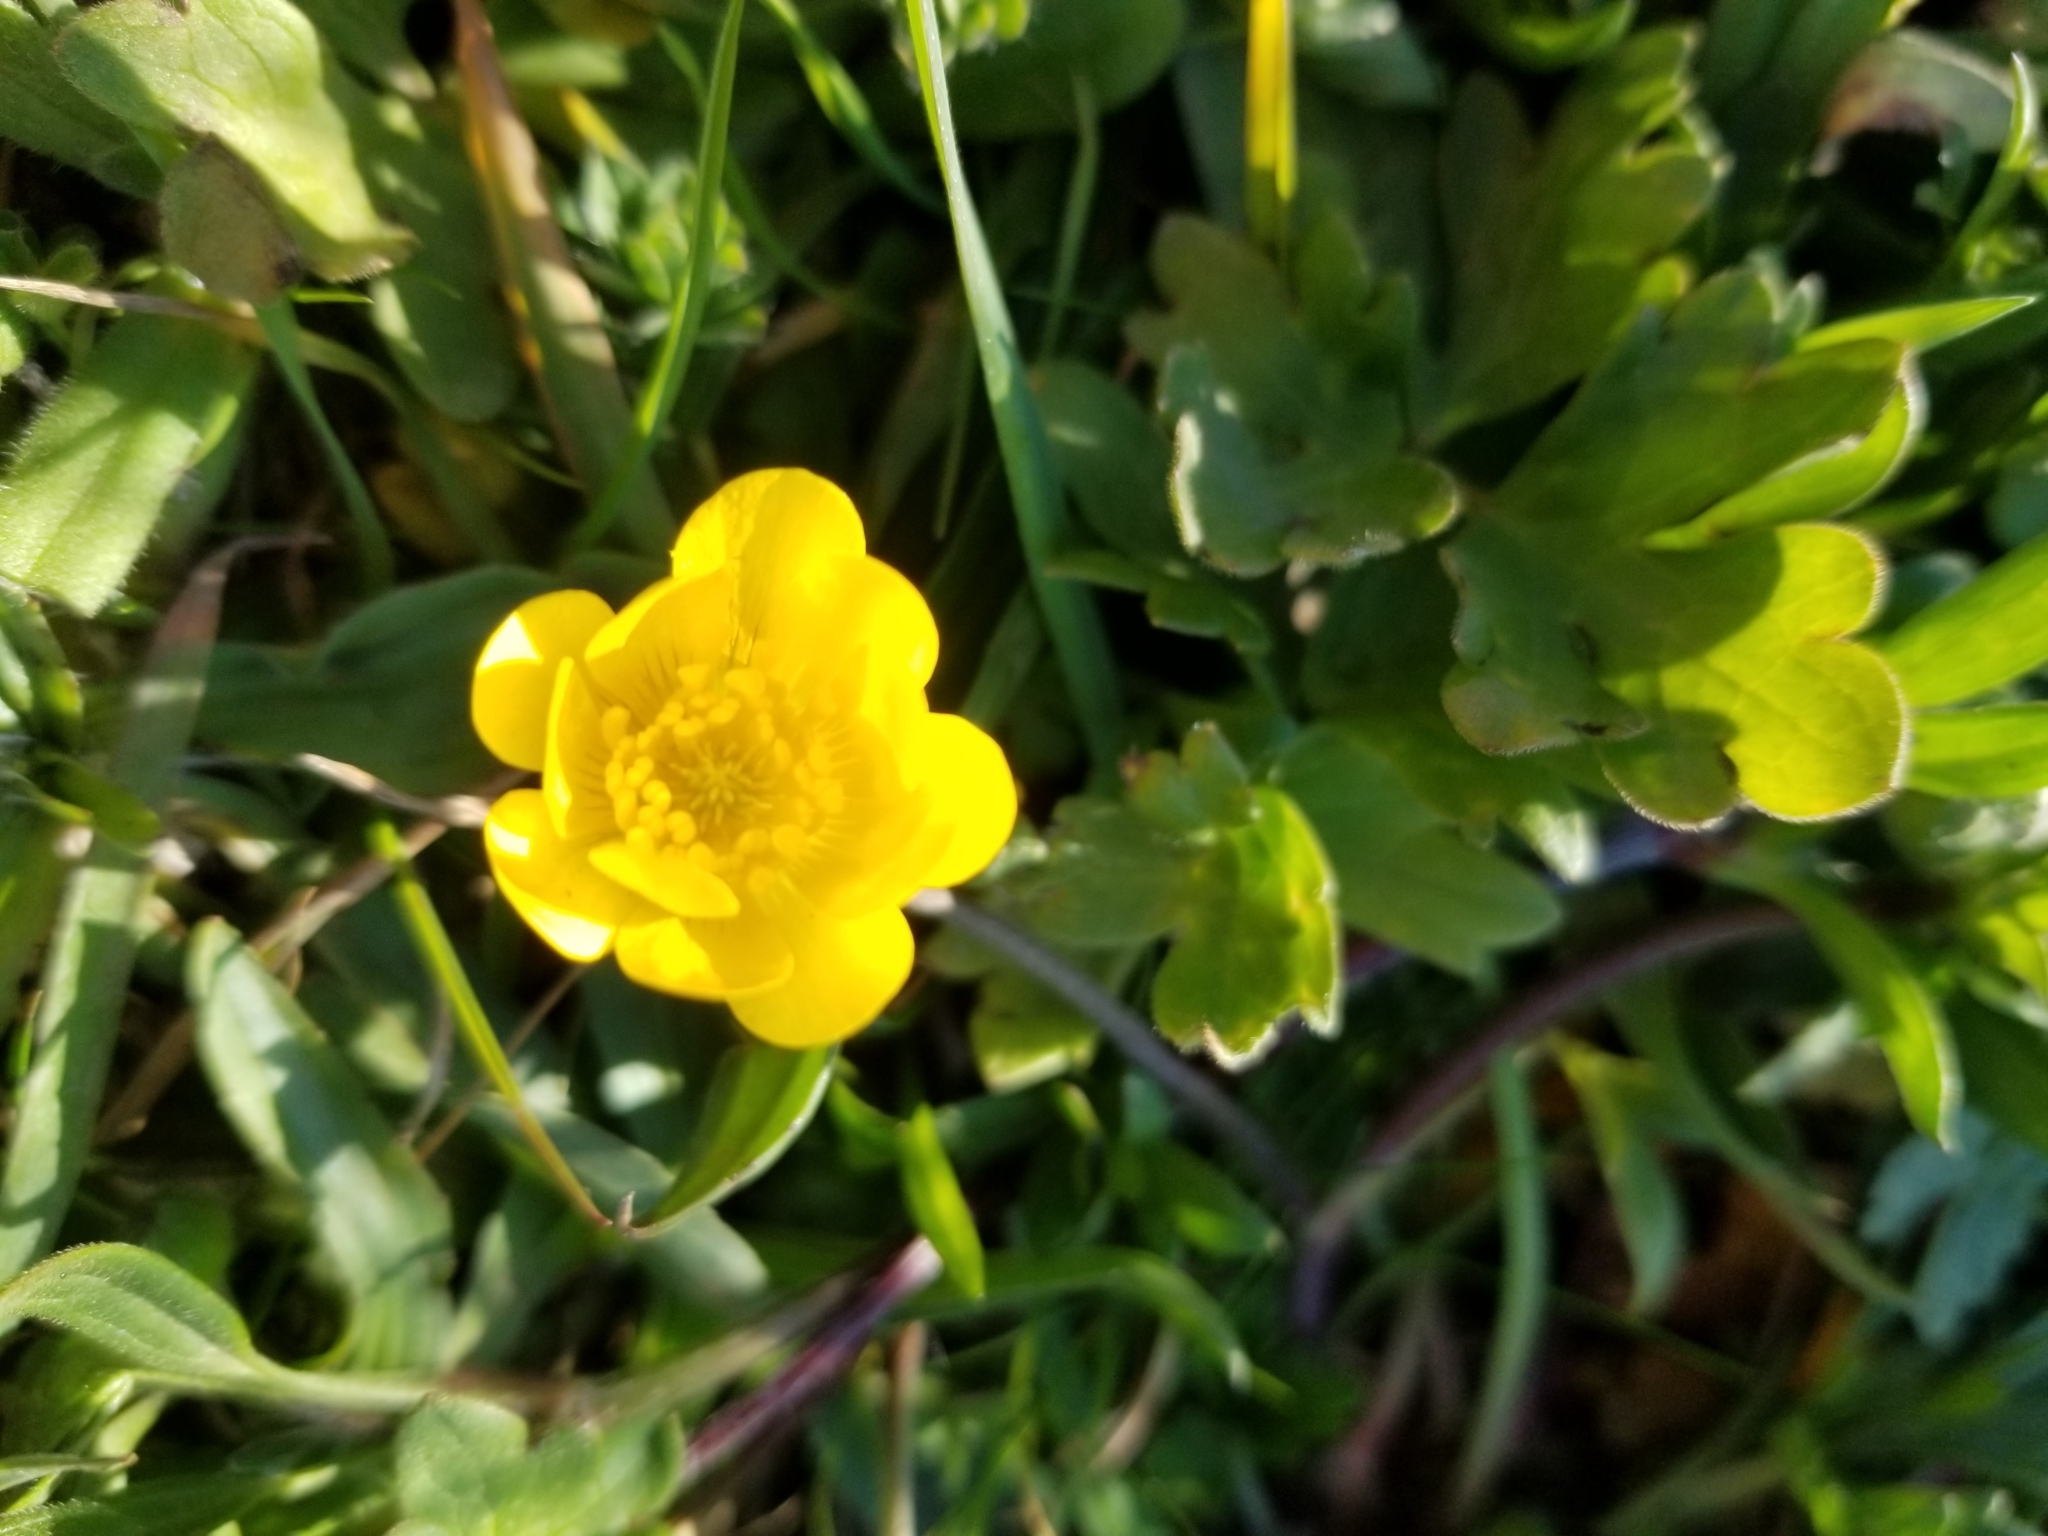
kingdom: Plantae
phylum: Tracheophyta
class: Magnoliopsida
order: Ranunculales
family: Ranunculaceae
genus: Ranunculus
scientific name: Ranunculus californicus
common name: California buttercup
